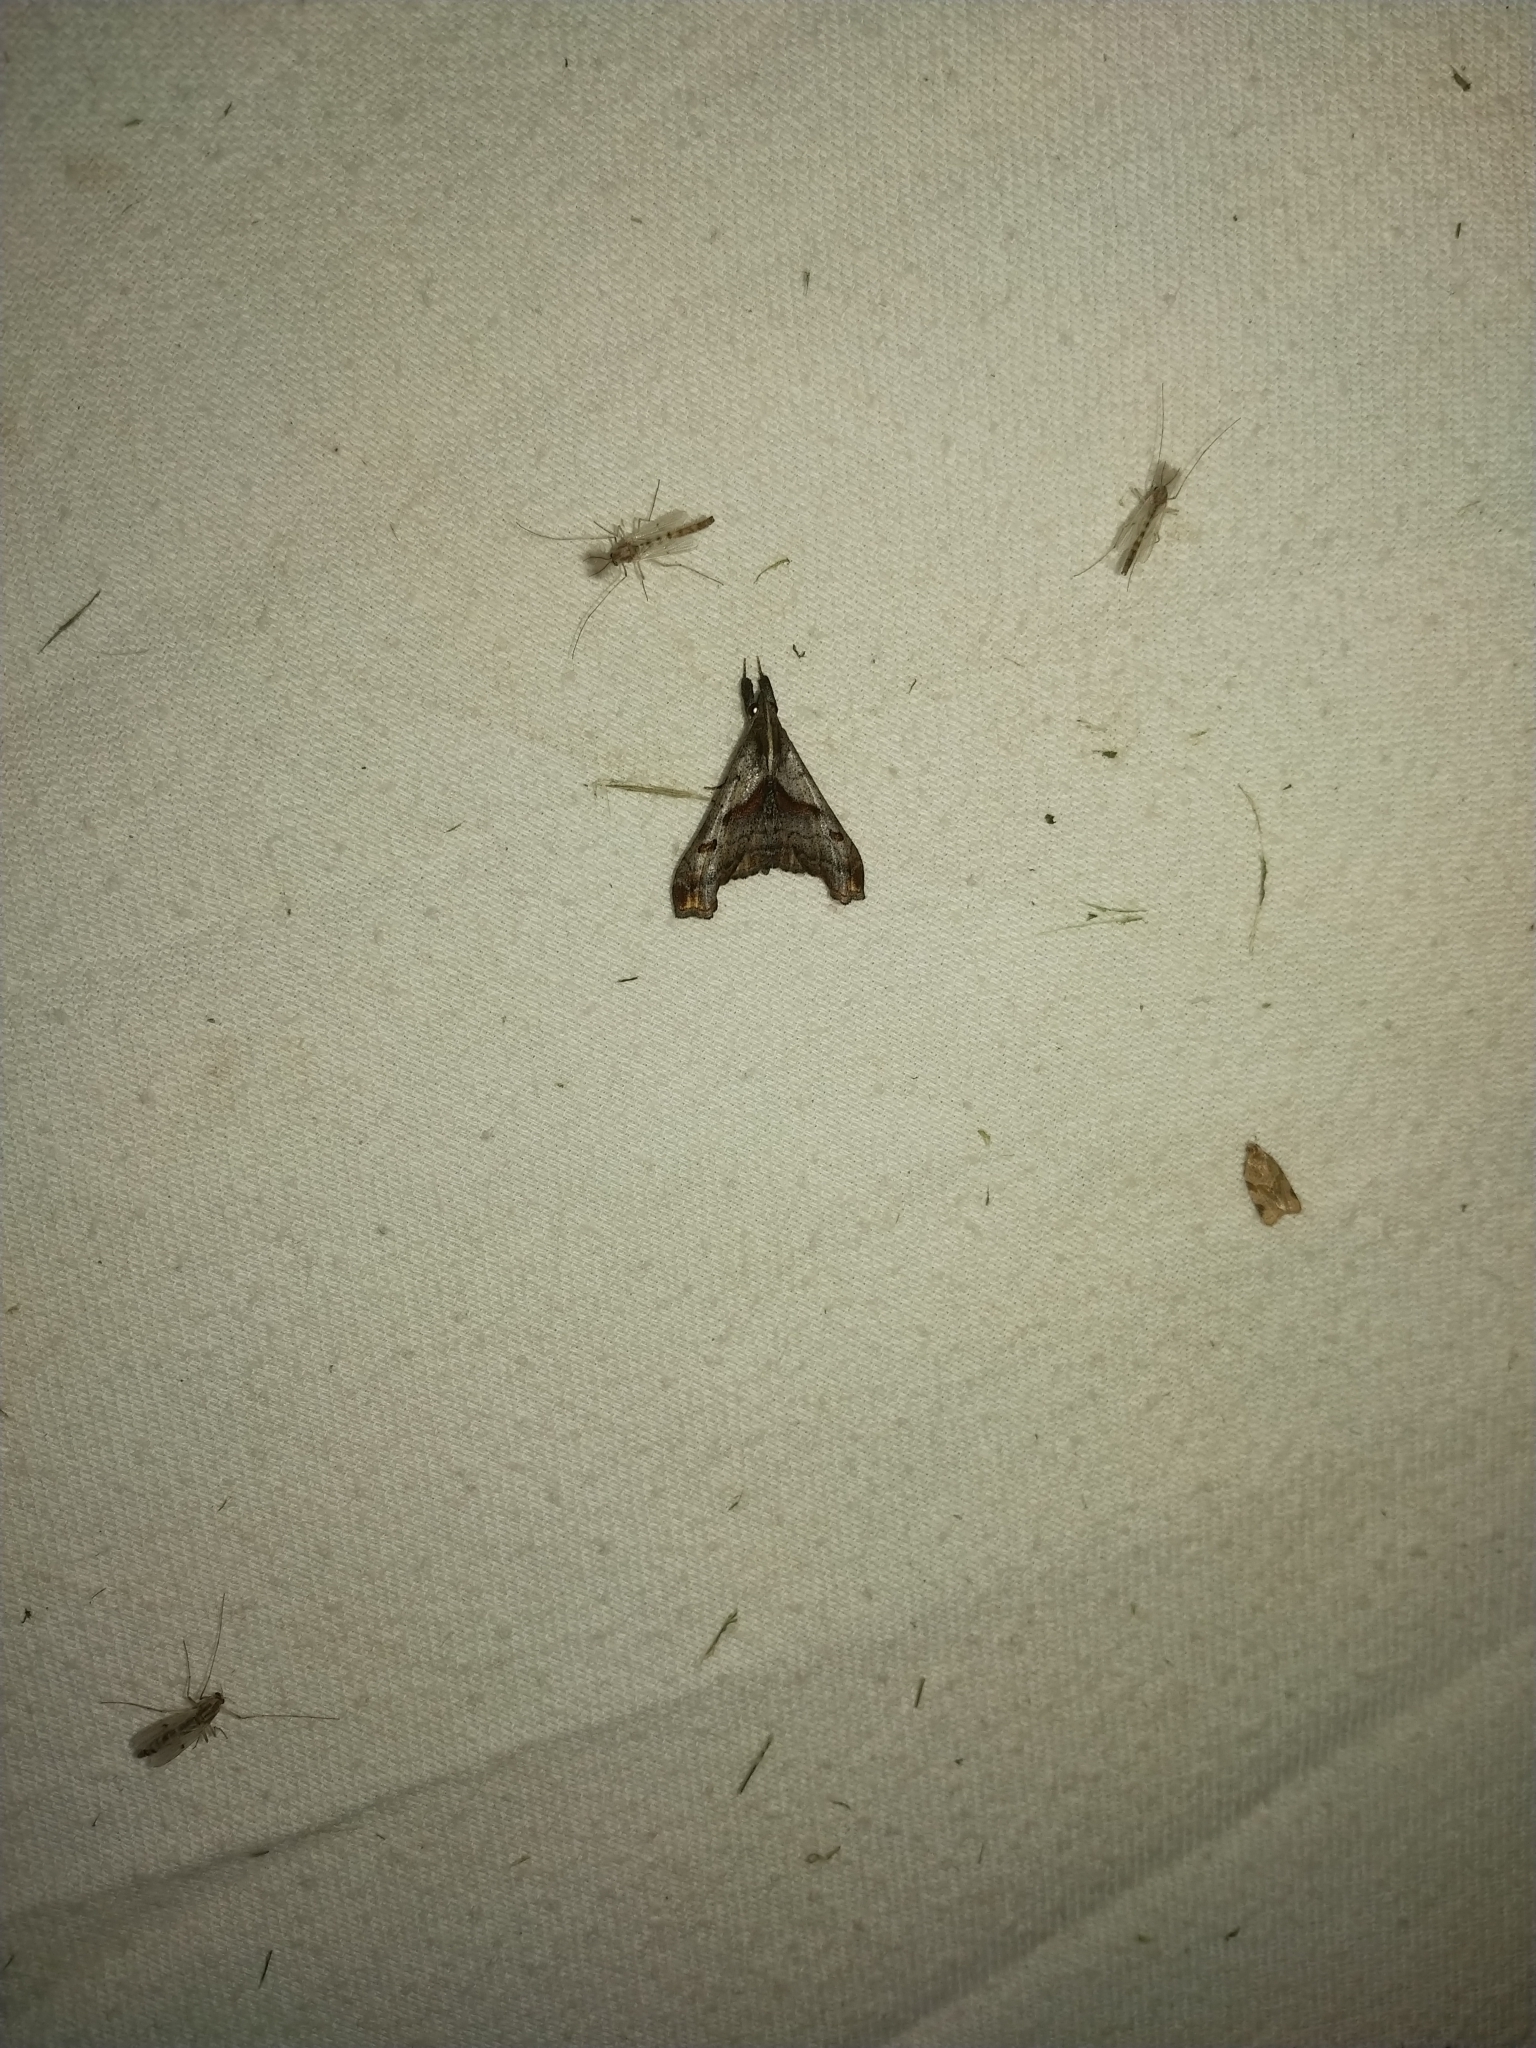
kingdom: Animalia
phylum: Arthropoda
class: Insecta
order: Lepidoptera
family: Erebidae
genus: Palthis
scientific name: Palthis angulalis
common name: Dark-spotted palthis moth
